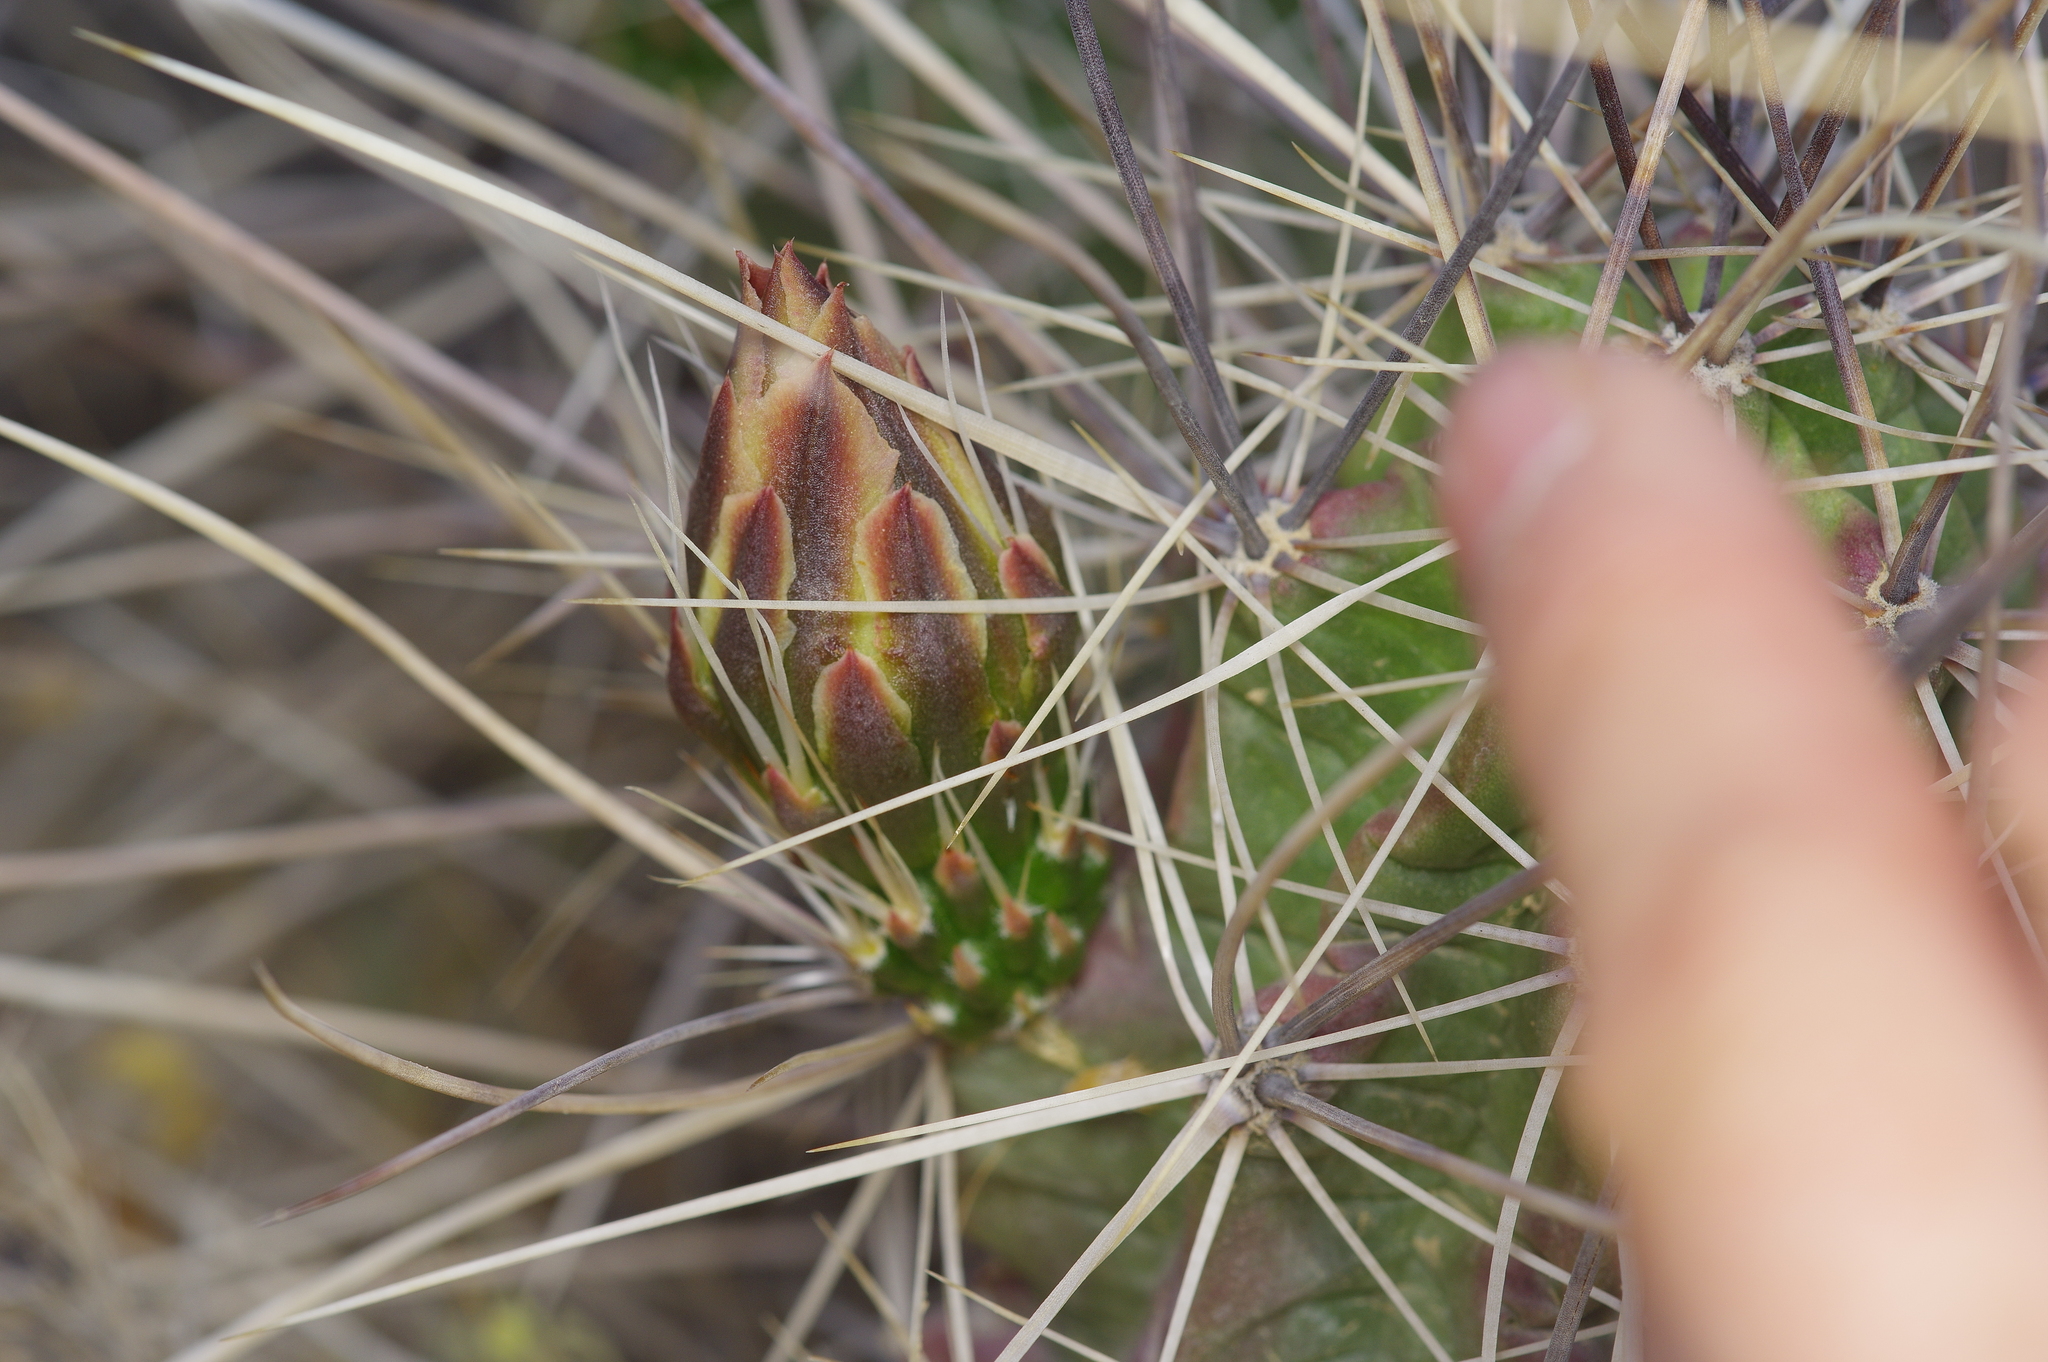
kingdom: Plantae
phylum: Tracheophyta
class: Magnoliopsida
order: Caryophyllales
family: Cactaceae
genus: Echinocereus
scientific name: Echinocereus enneacanthus
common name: Pitaya
